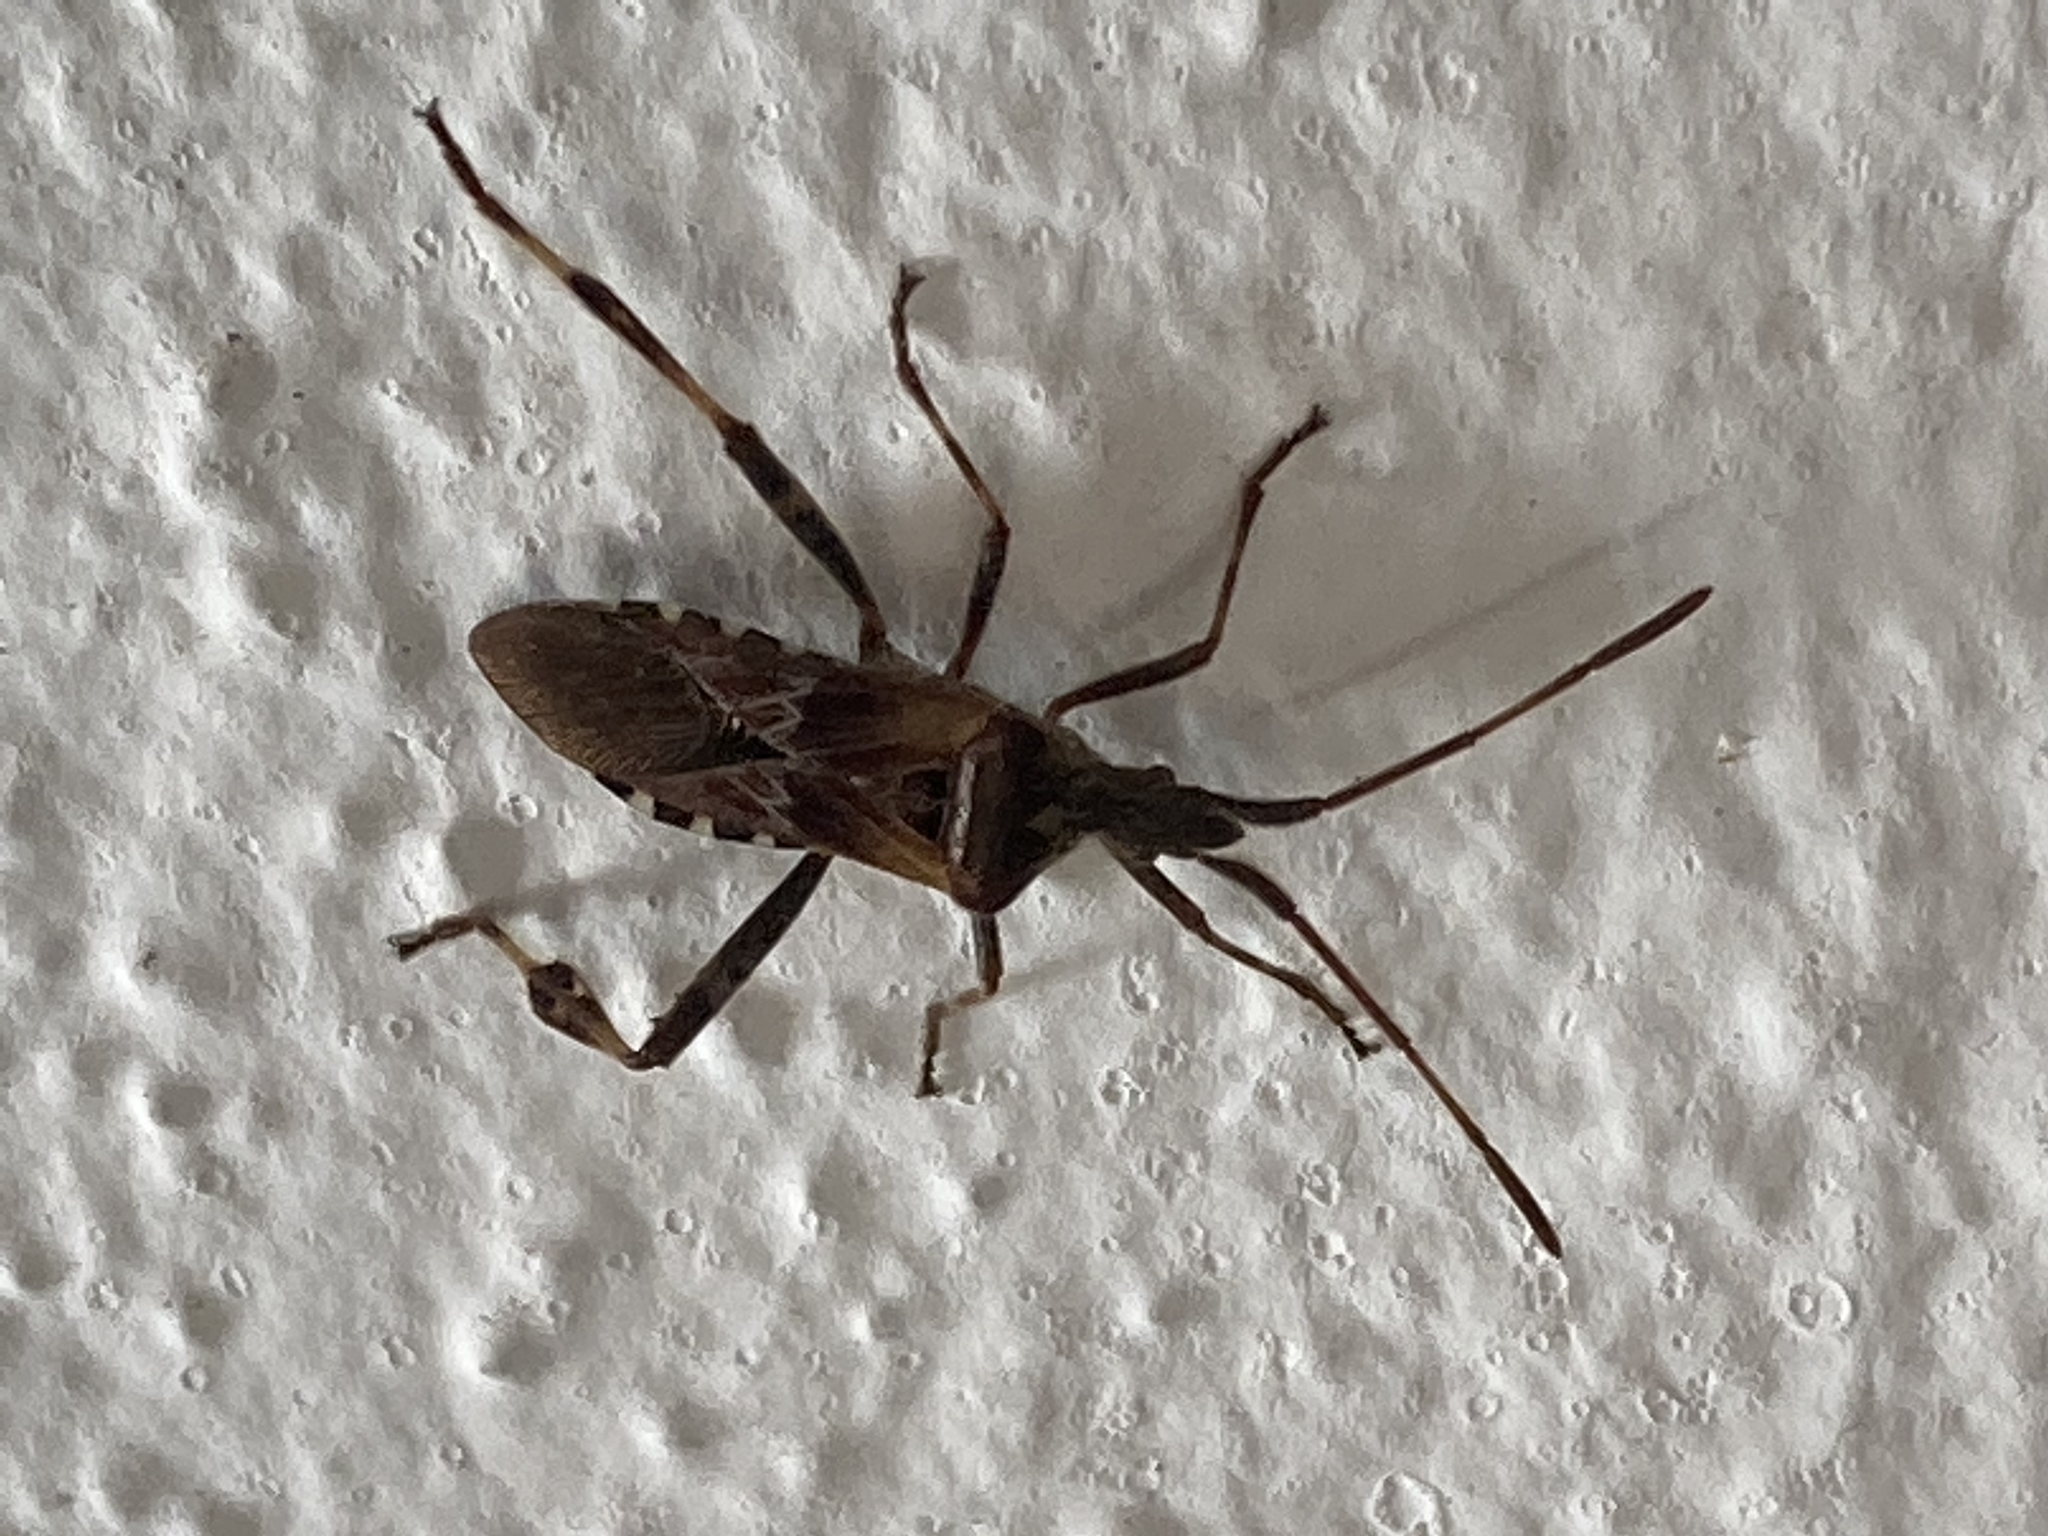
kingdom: Animalia
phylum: Arthropoda
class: Insecta
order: Hemiptera
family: Coreidae
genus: Leptoglossus
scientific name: Leptoglossus occidentalis
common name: Western conifer-seed bug
